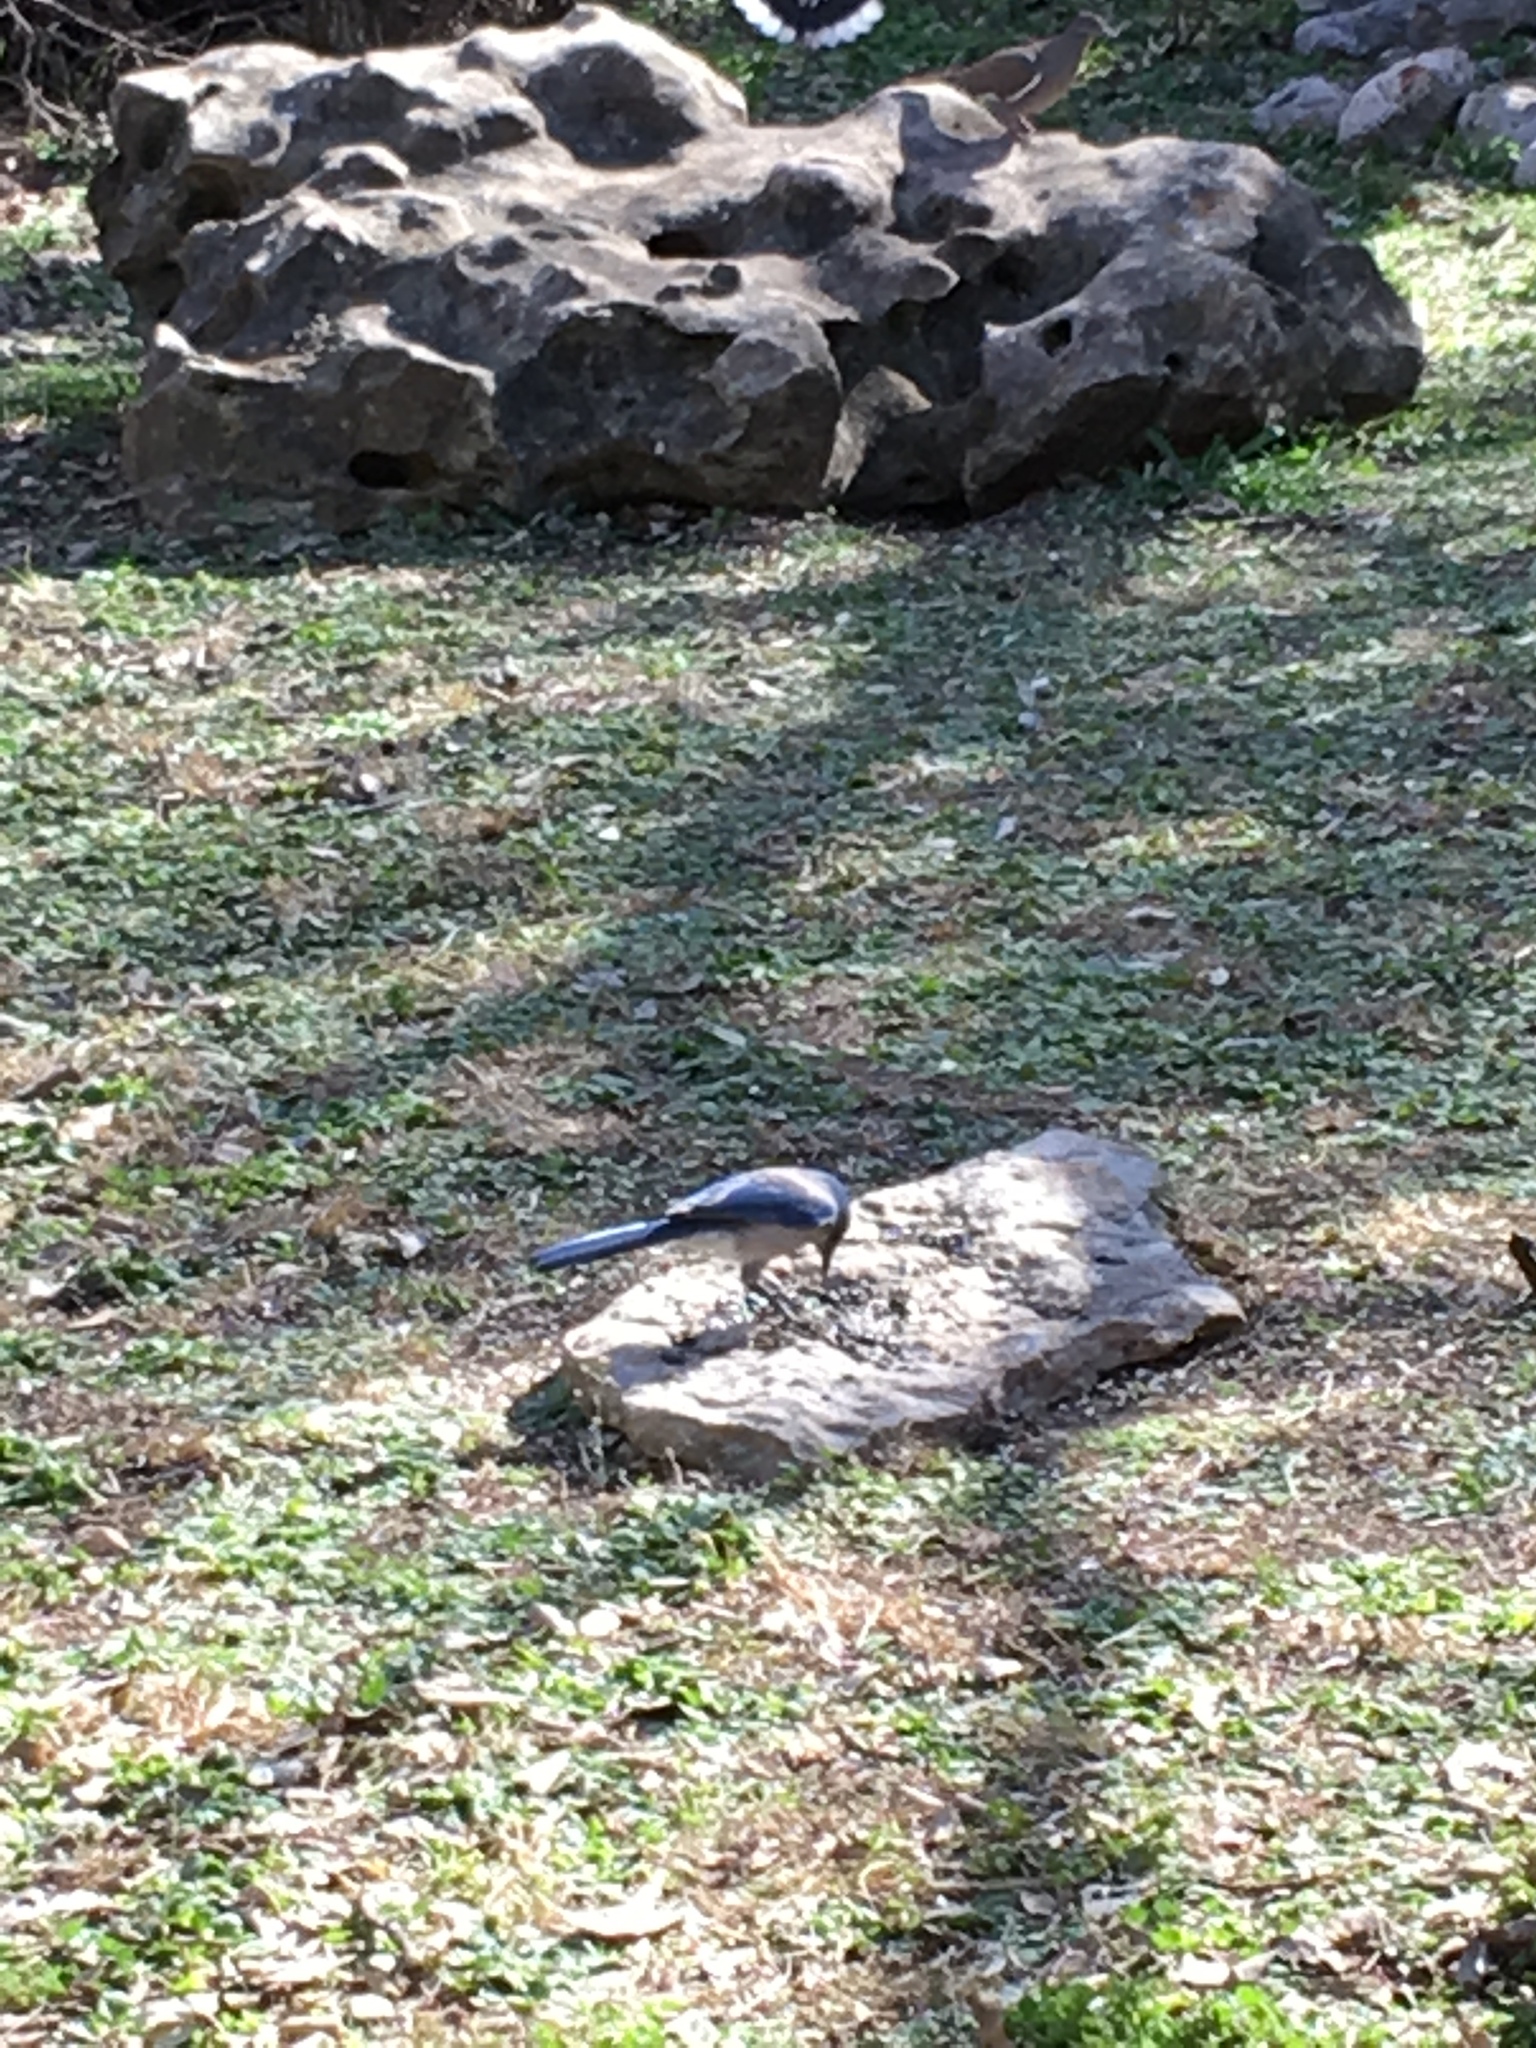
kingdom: Animalia
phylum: Chordata
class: Aves
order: Passeriformes
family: Corvidae
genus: Aphelocoma
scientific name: Aphelocoma woodhouseii
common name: Woodhouse's scrub-jay
